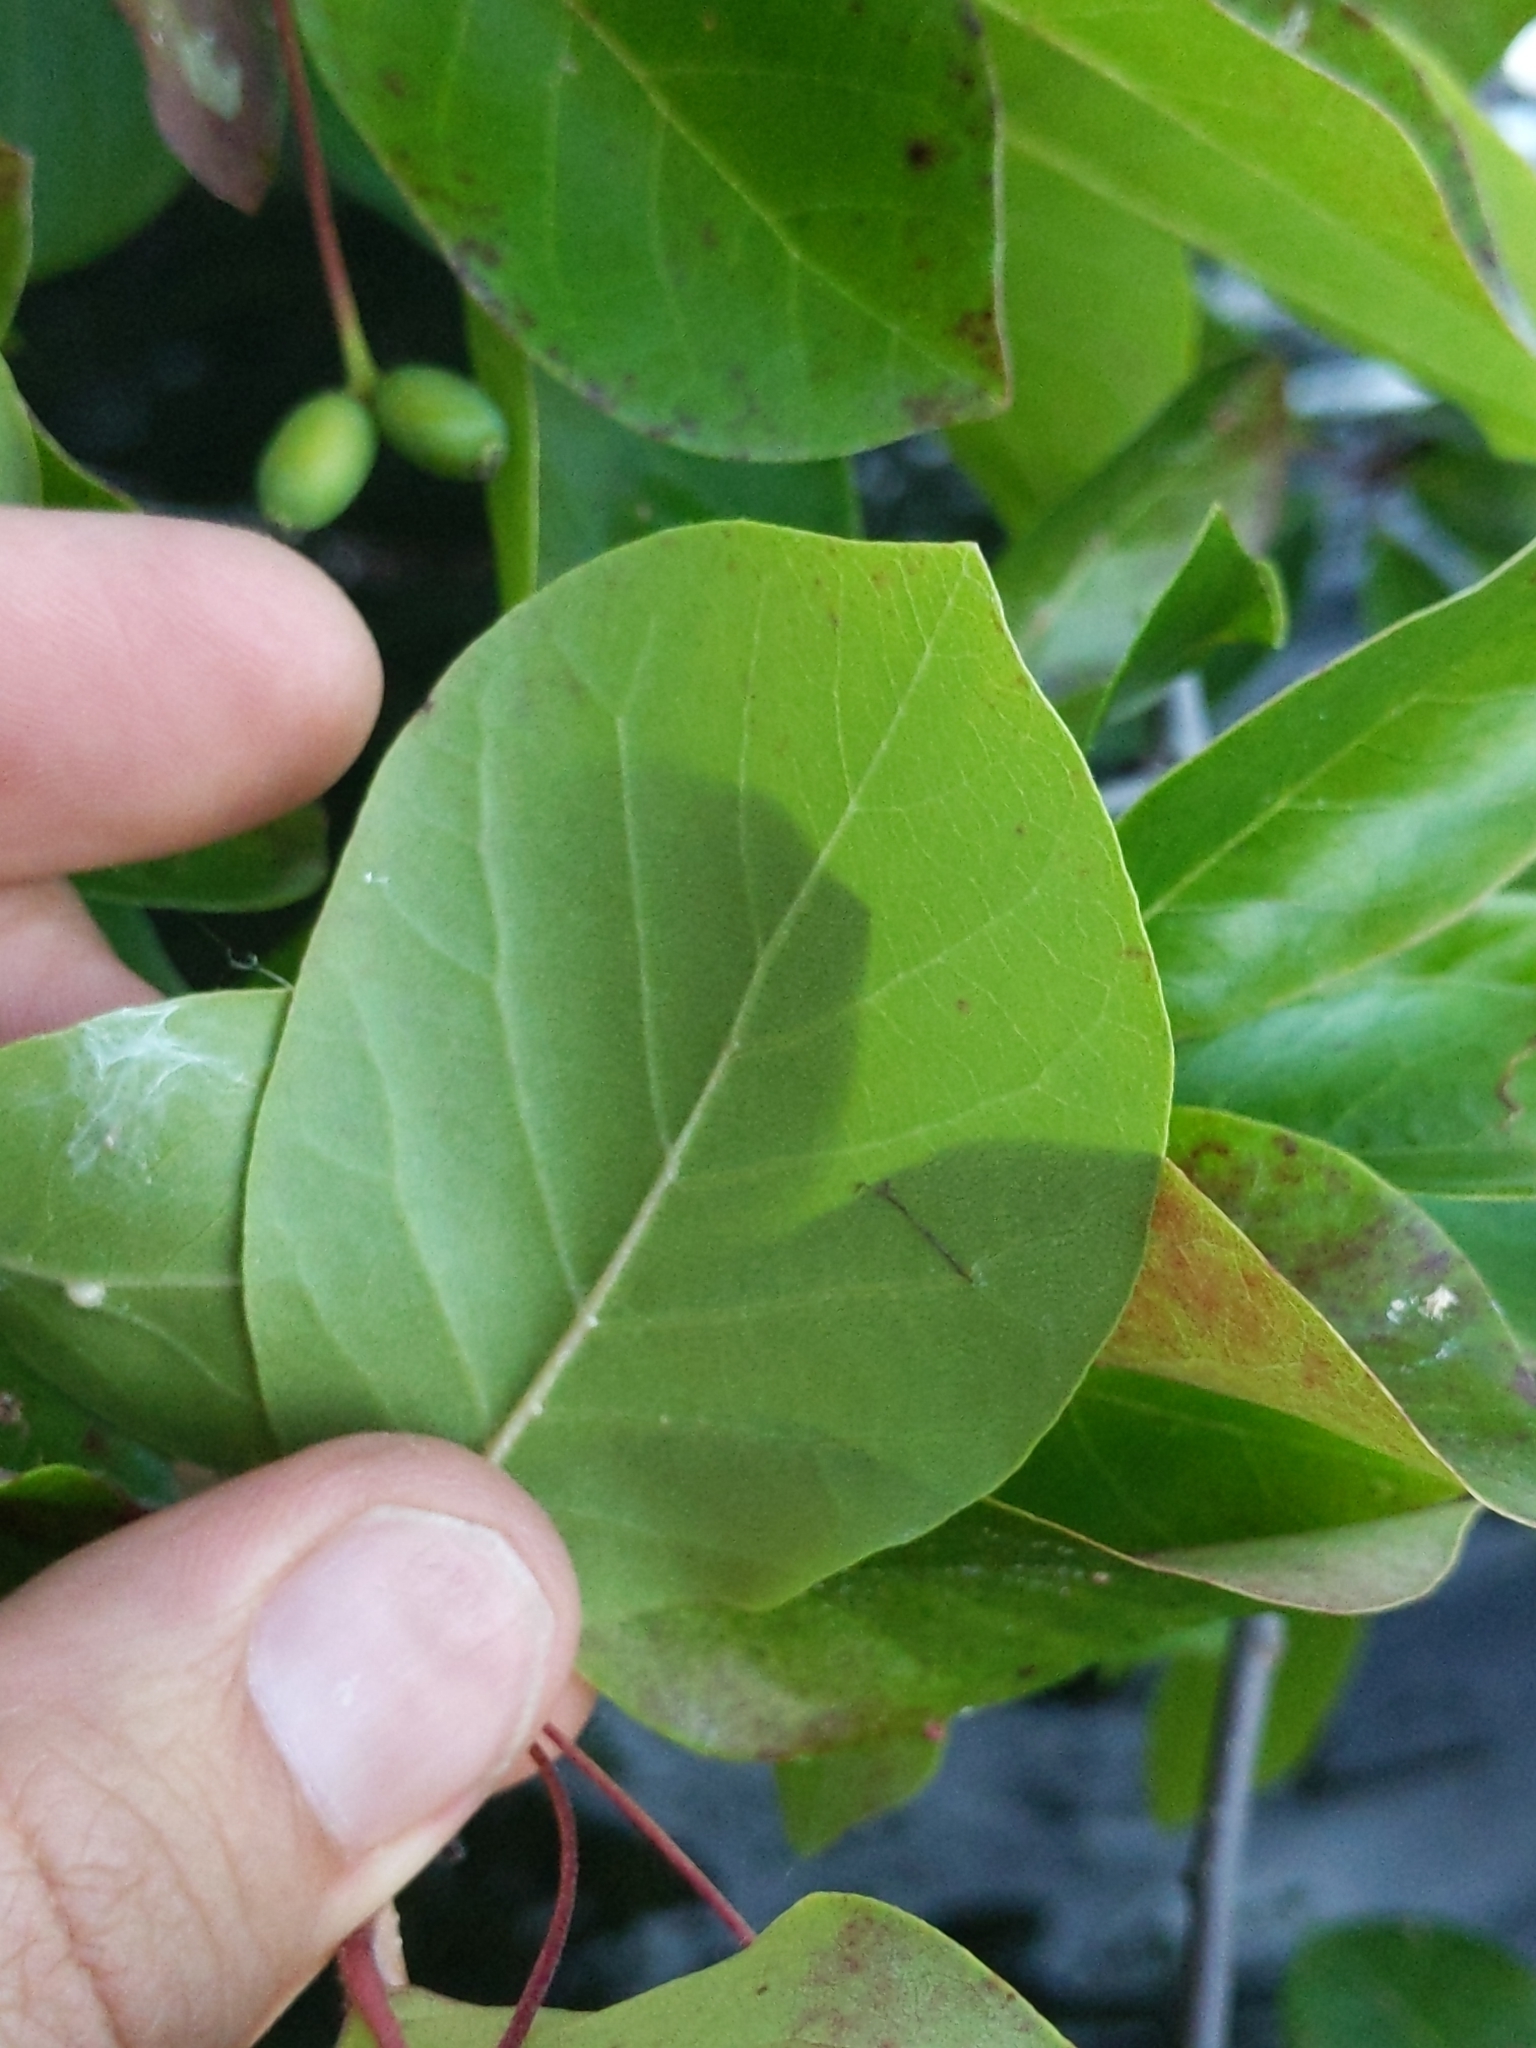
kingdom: Plantae
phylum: Tracheophyta
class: Magnoliopsida
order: Cornales
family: Nyssaceae
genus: Nyssa
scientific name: Nyssa sylvatica
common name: Black tupelo
